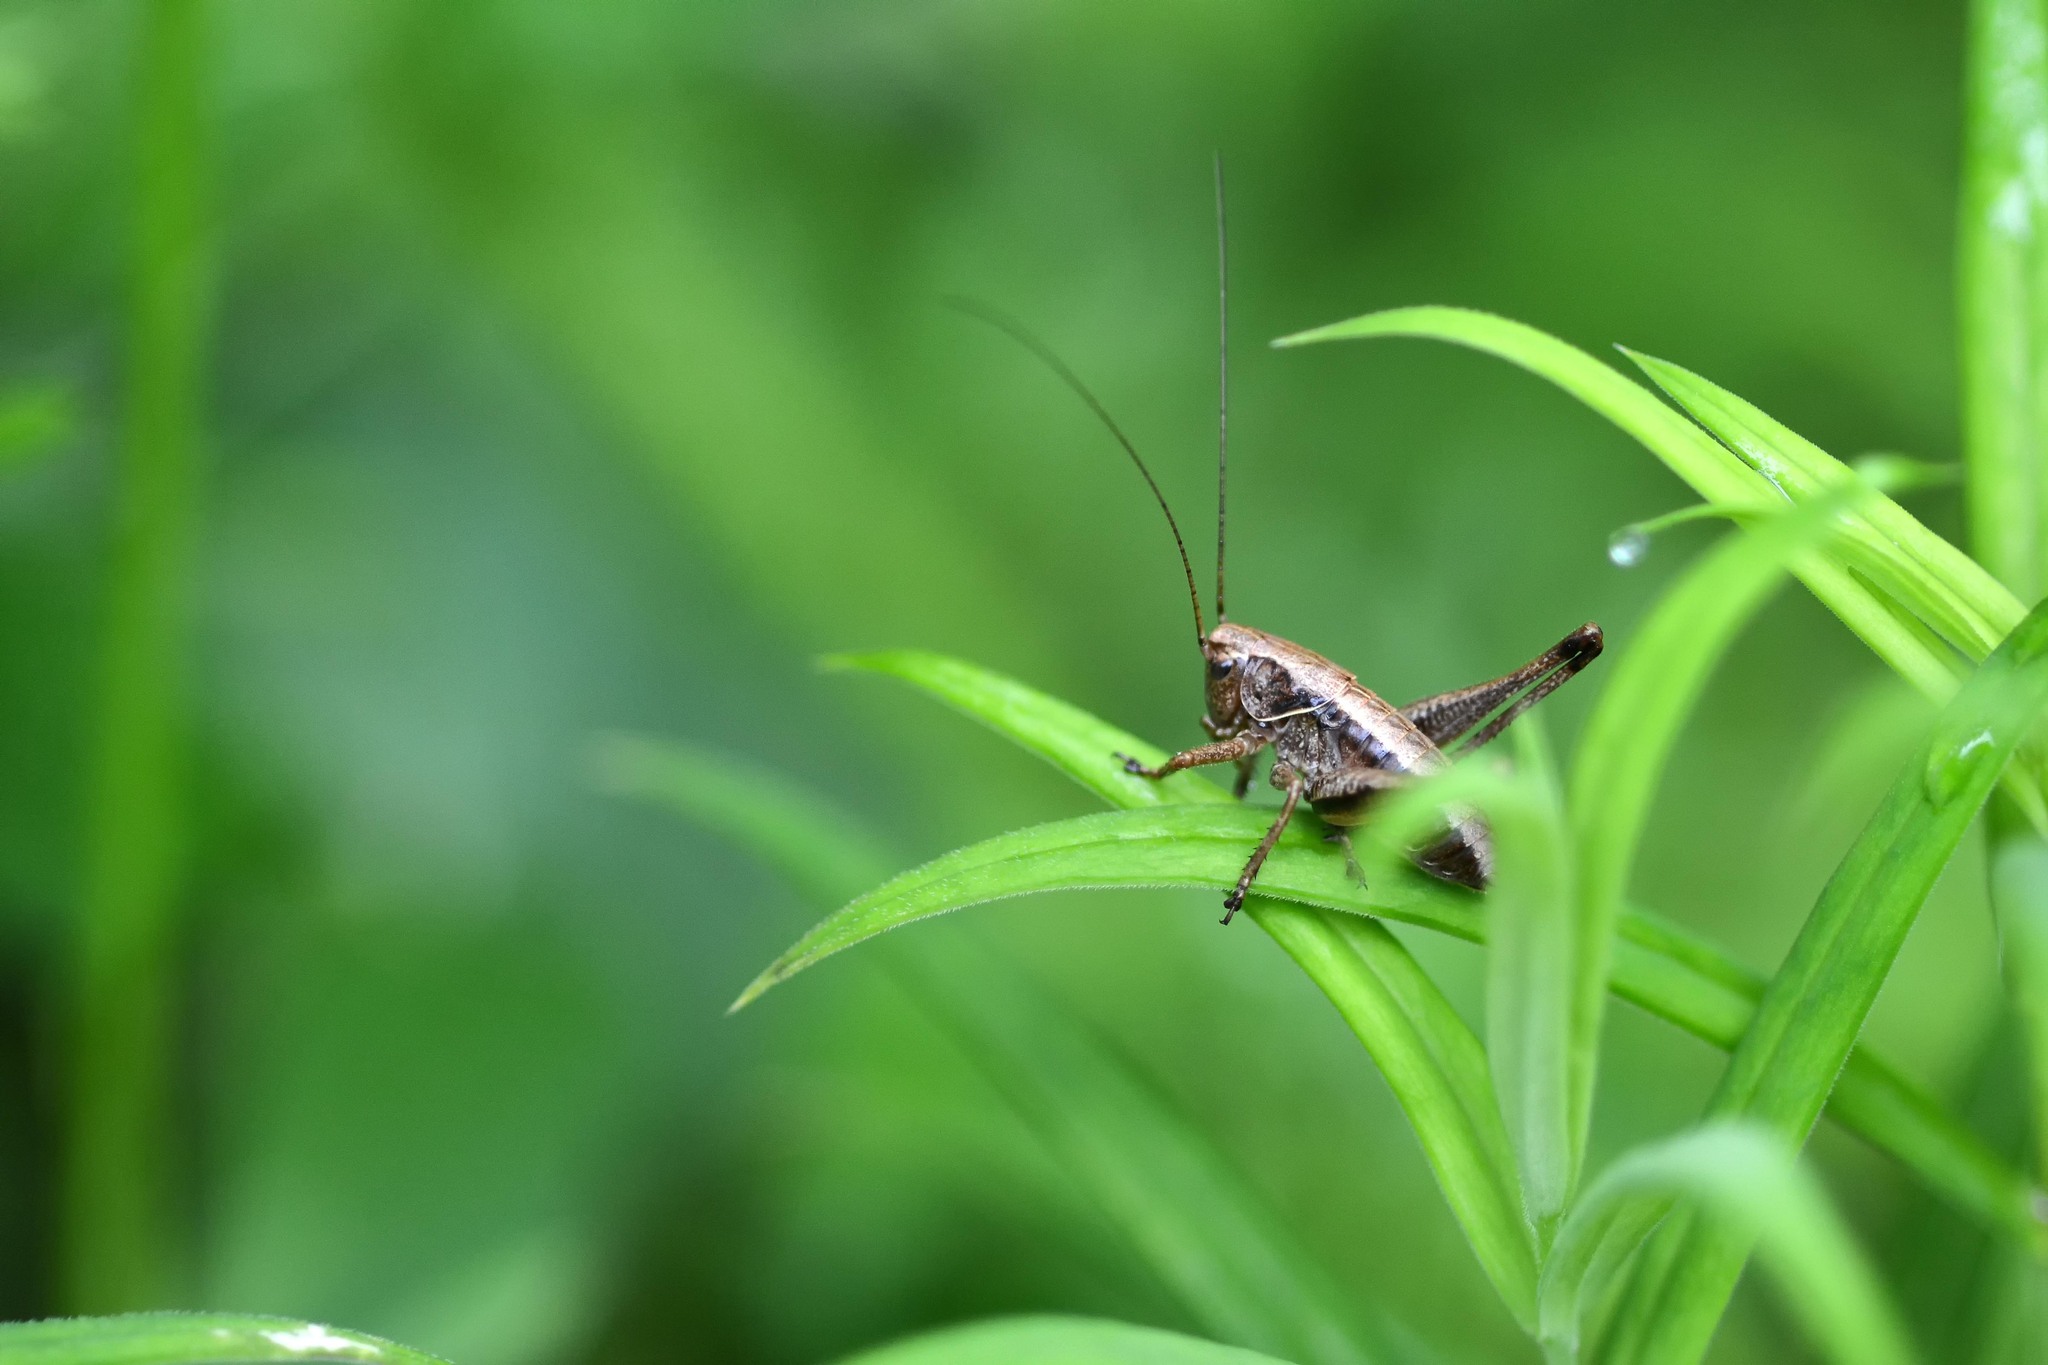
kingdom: Animalia
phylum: Arthropoda
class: Insecta
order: Orthoptera
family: Tettigoniidae
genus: Pholidoptera
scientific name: Pholidoptera griseoaptera
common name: Dark bush-cricket
